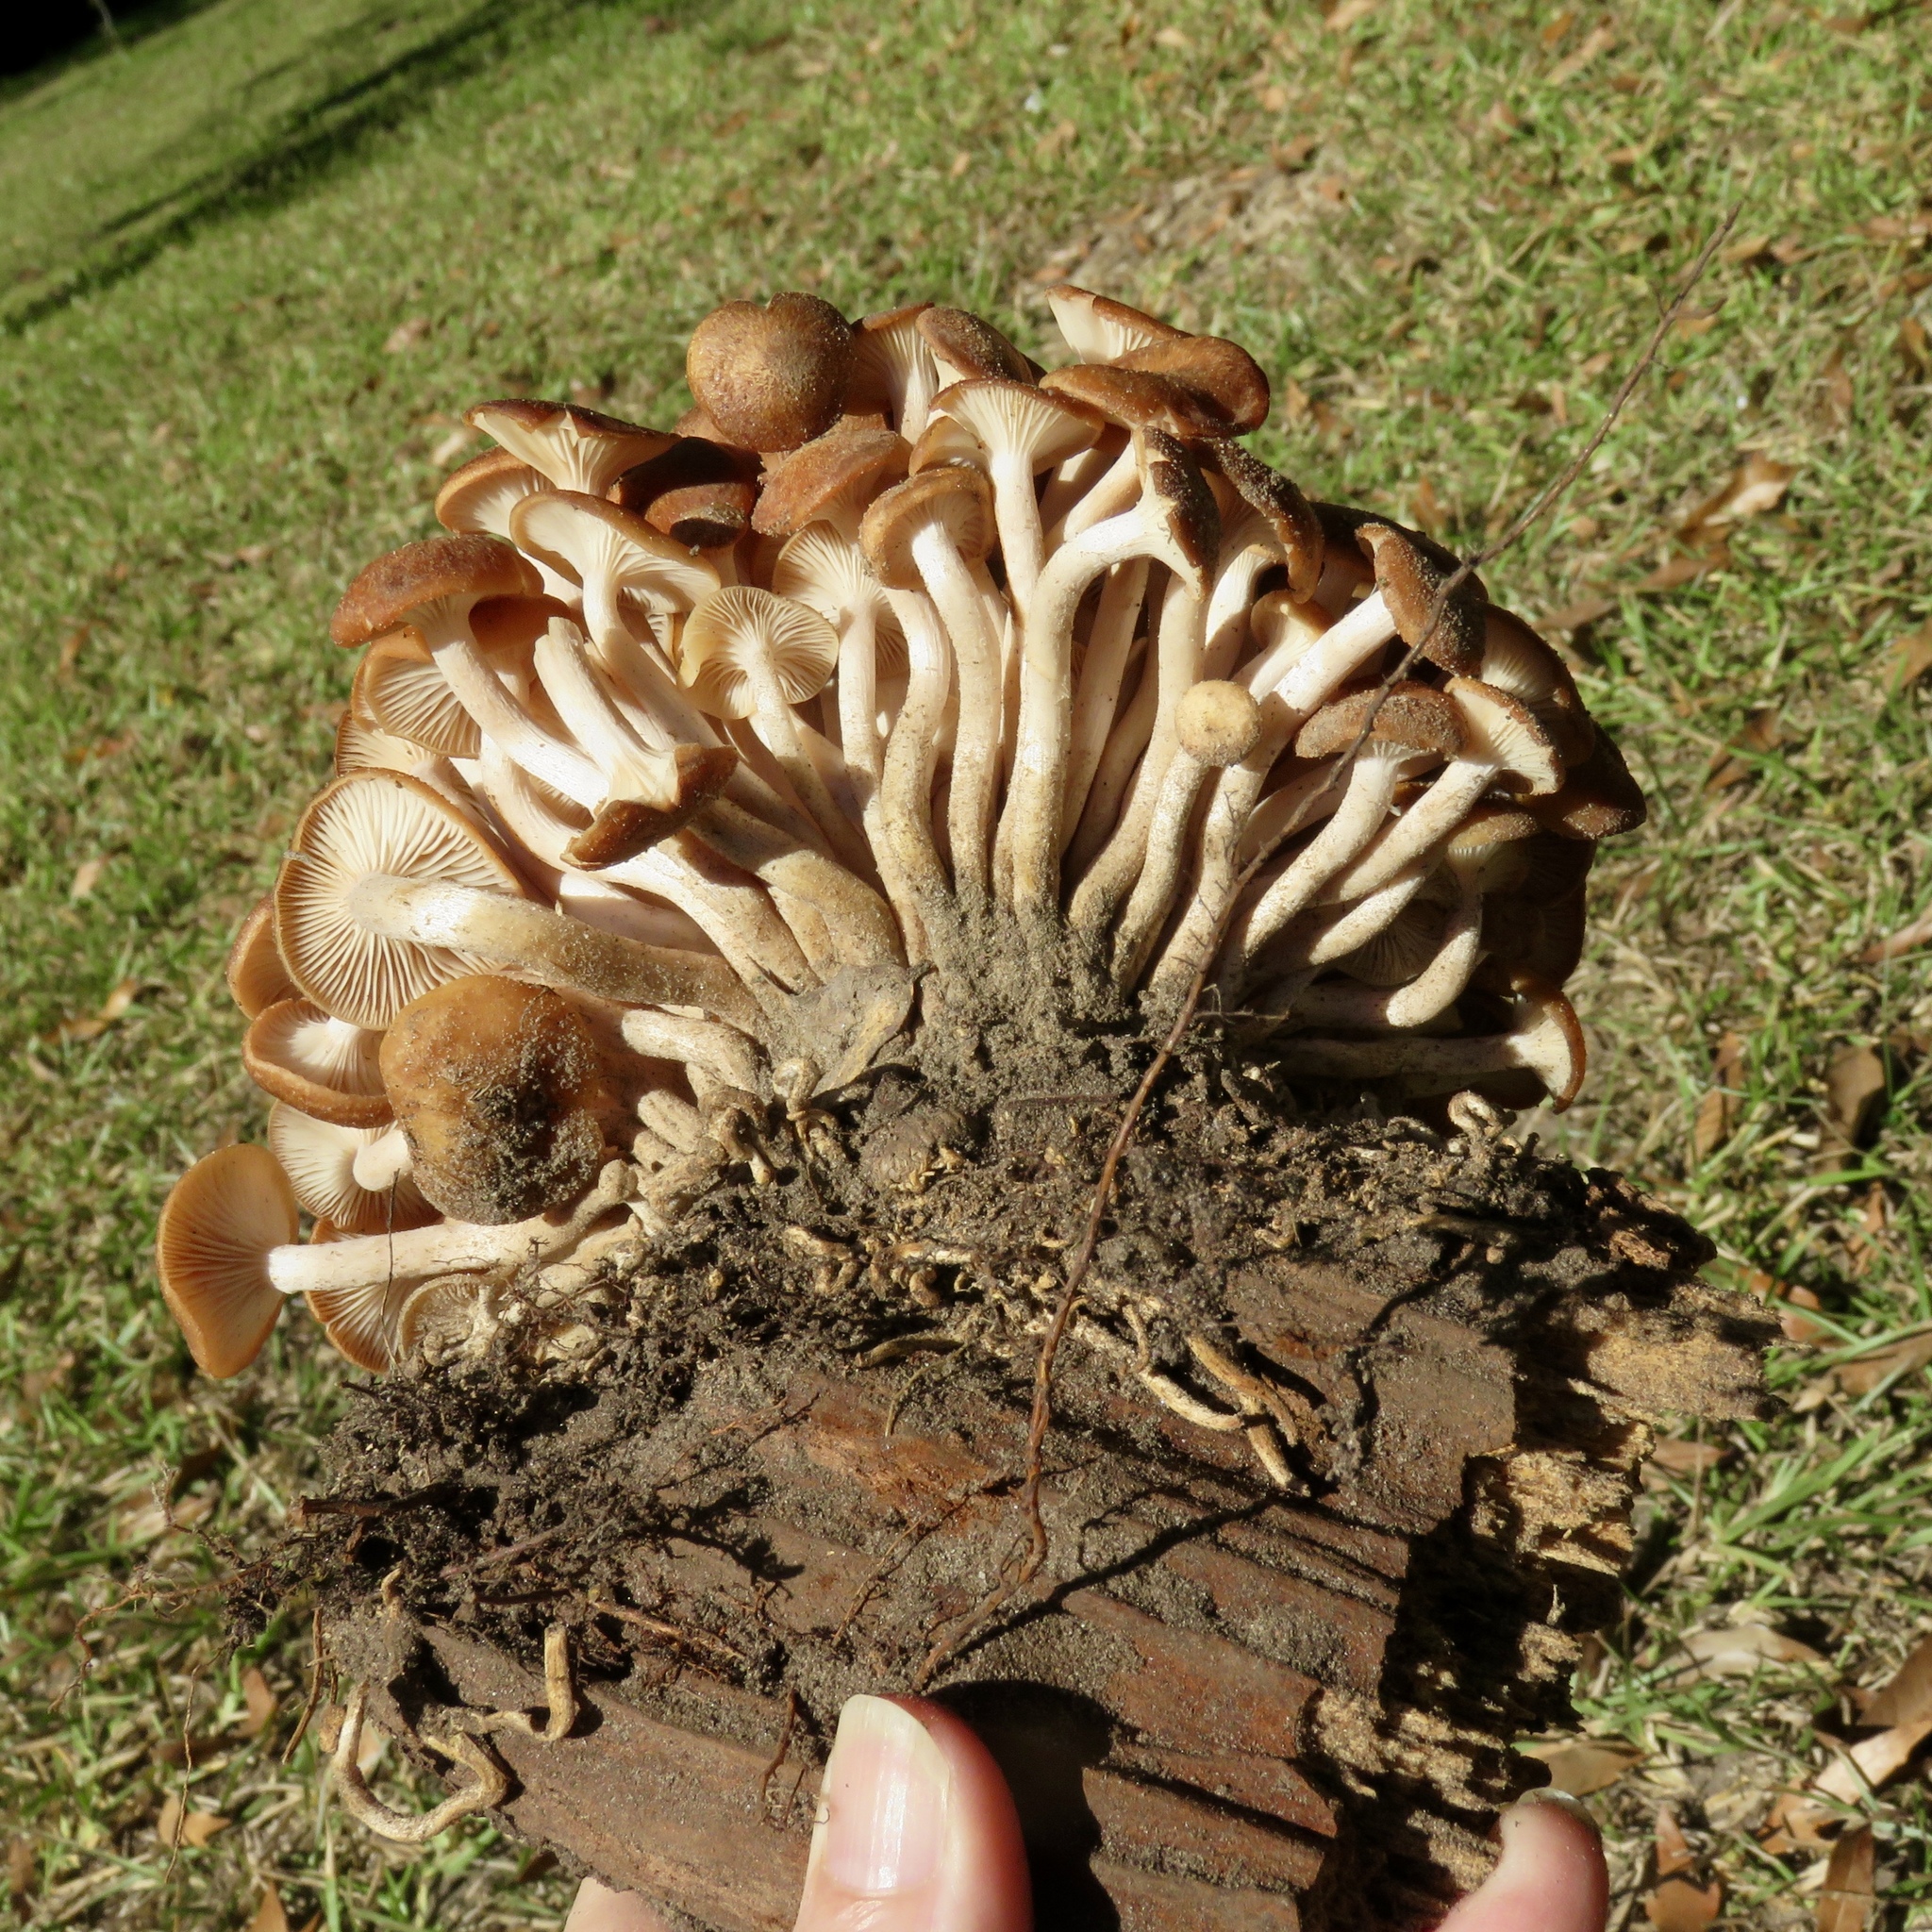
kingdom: Fungi
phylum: Basidiomycota
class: Agaricomycetes
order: Agaricales
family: Physalacriaceae
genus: Desarmillaria
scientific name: Desarmillaria caespitosa
